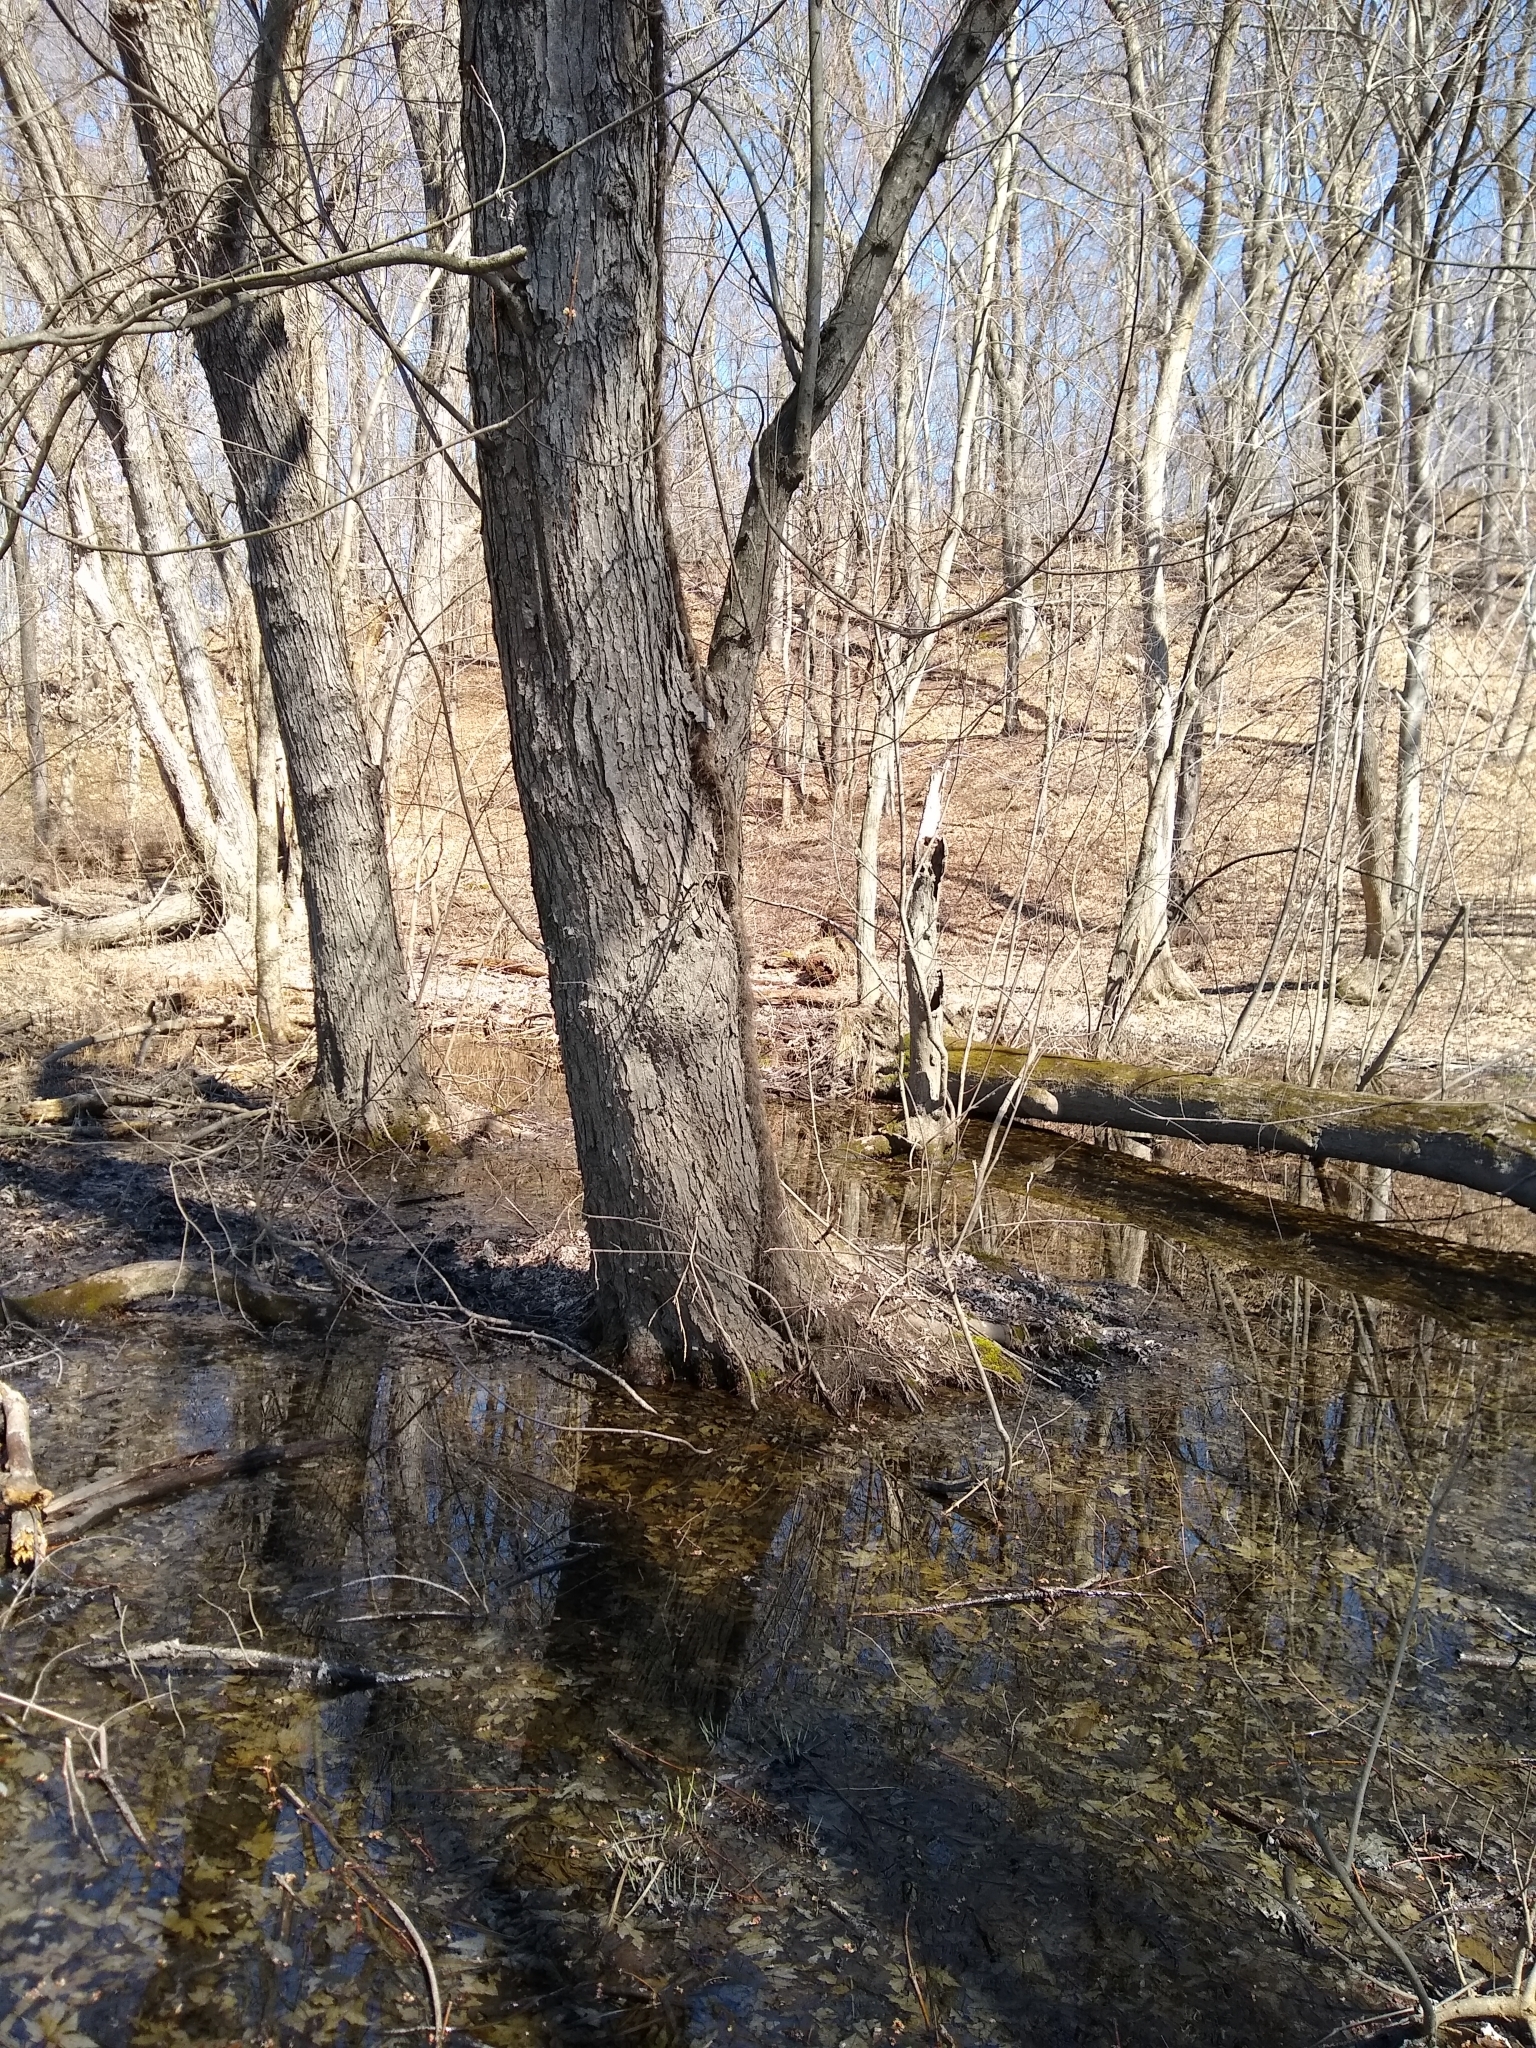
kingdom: Plantae
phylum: Tracheophyta
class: Magnoliopsida
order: Sapindales
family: Anacardiaceae
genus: Toxicodendron
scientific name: Toxicodendron radicans
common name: Poison ivy
